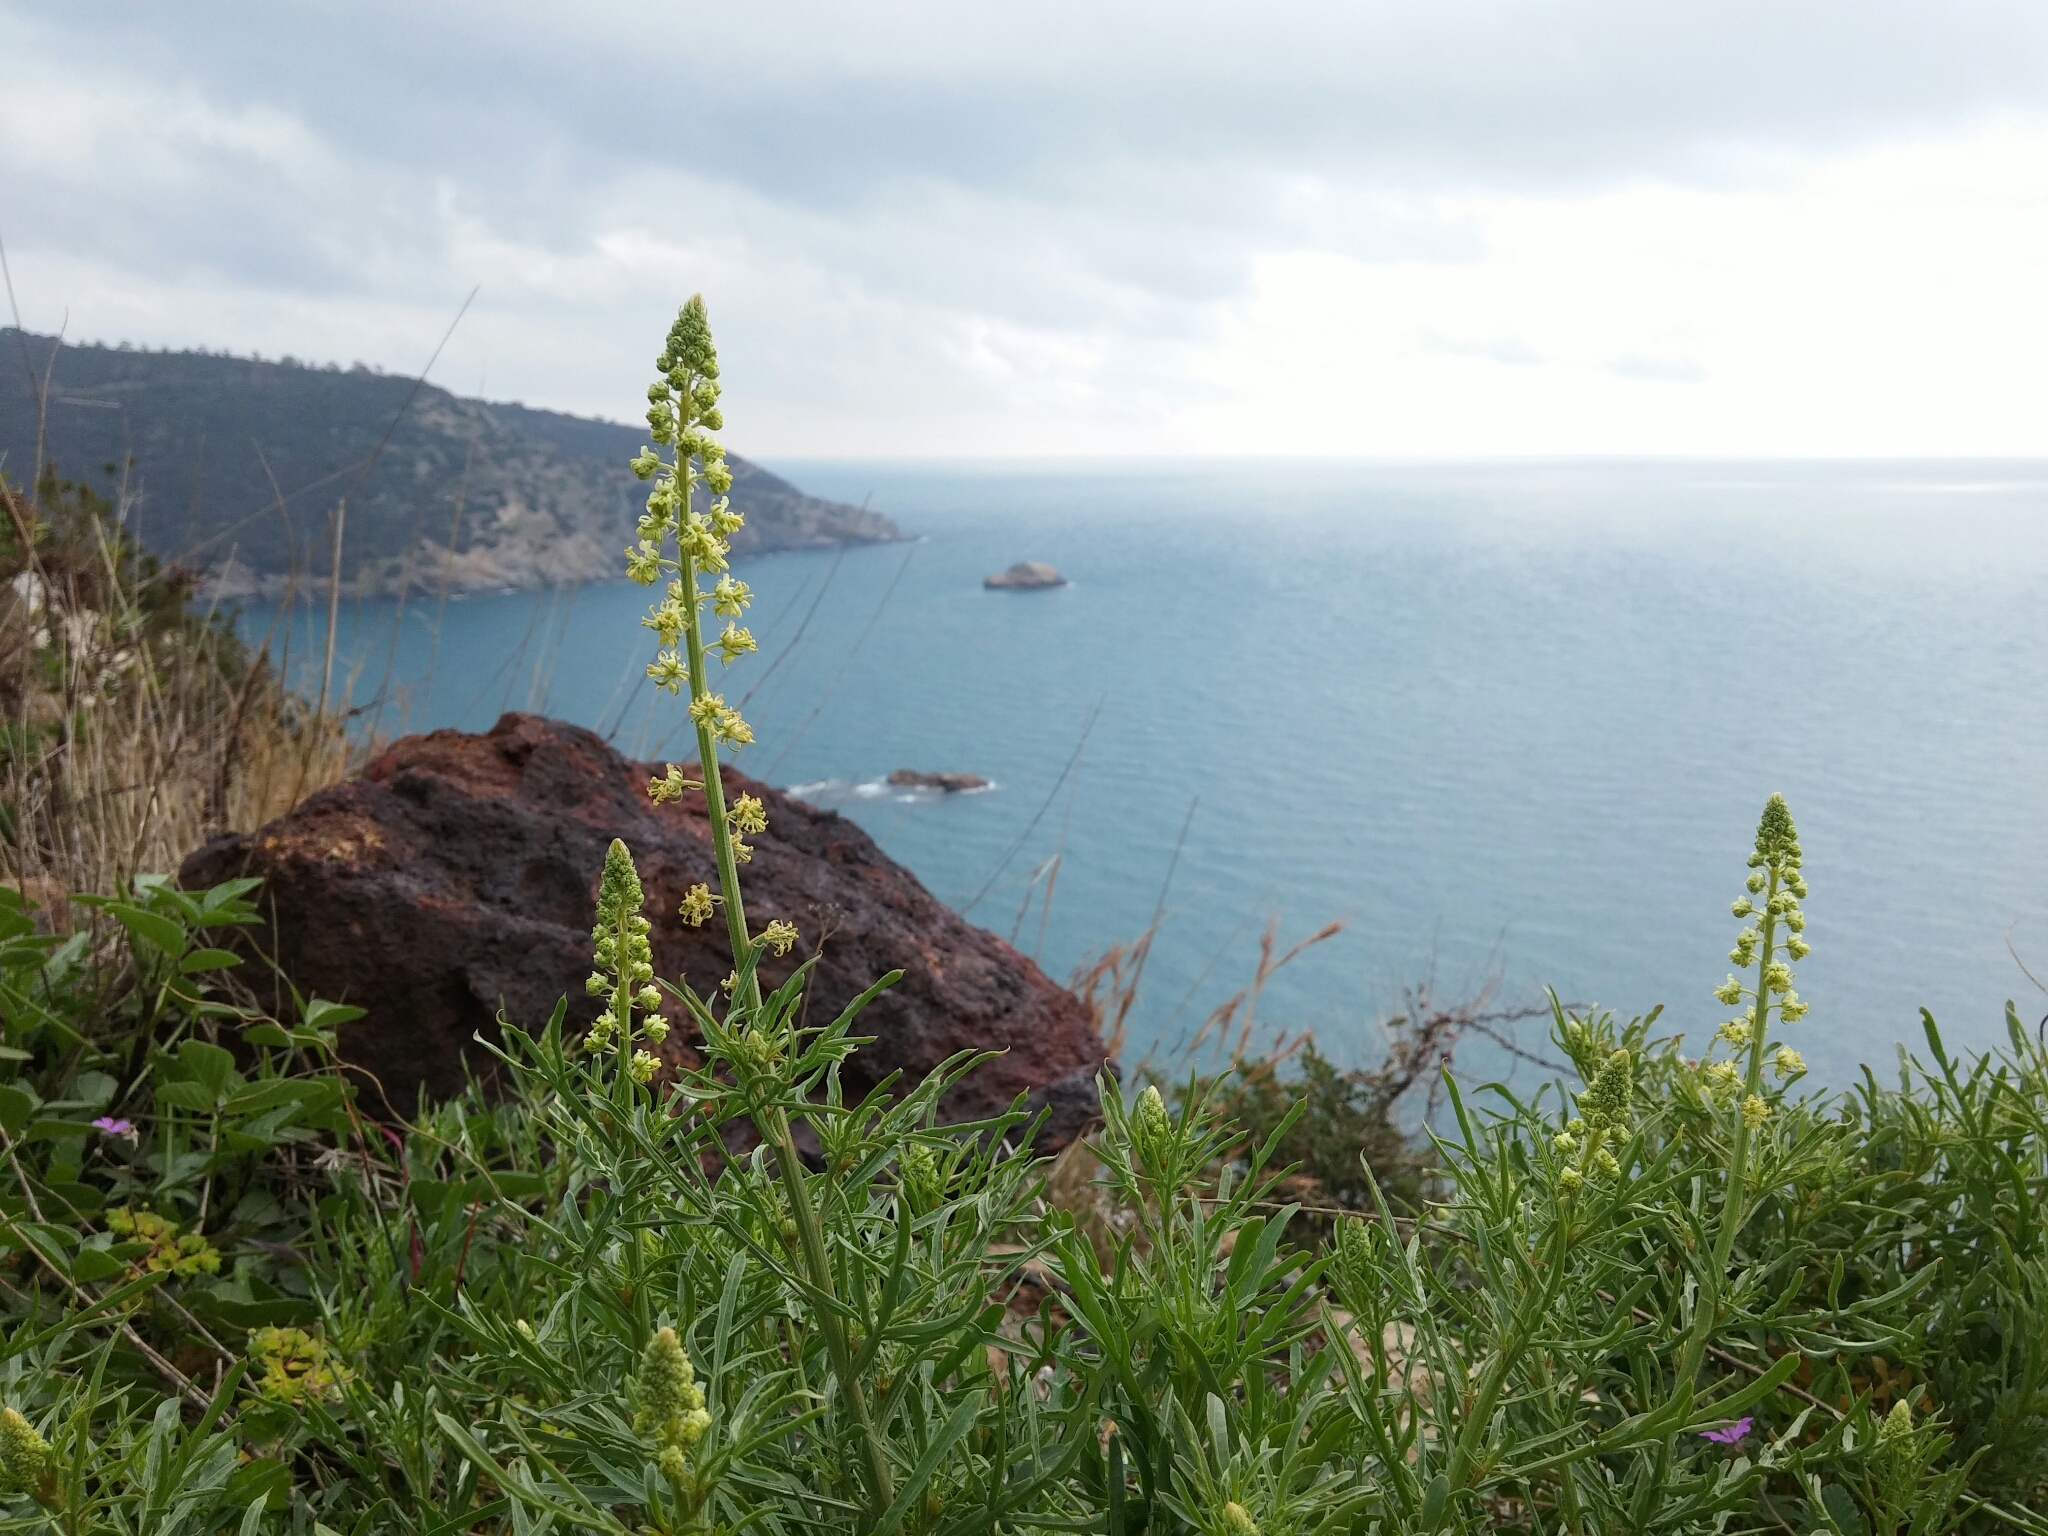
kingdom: Plantae
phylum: Tracheophyta
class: Magnoliopsida
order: Brassicales
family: Resedaceae
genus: Reseda
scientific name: Reseda lutea
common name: Wild mignonette
